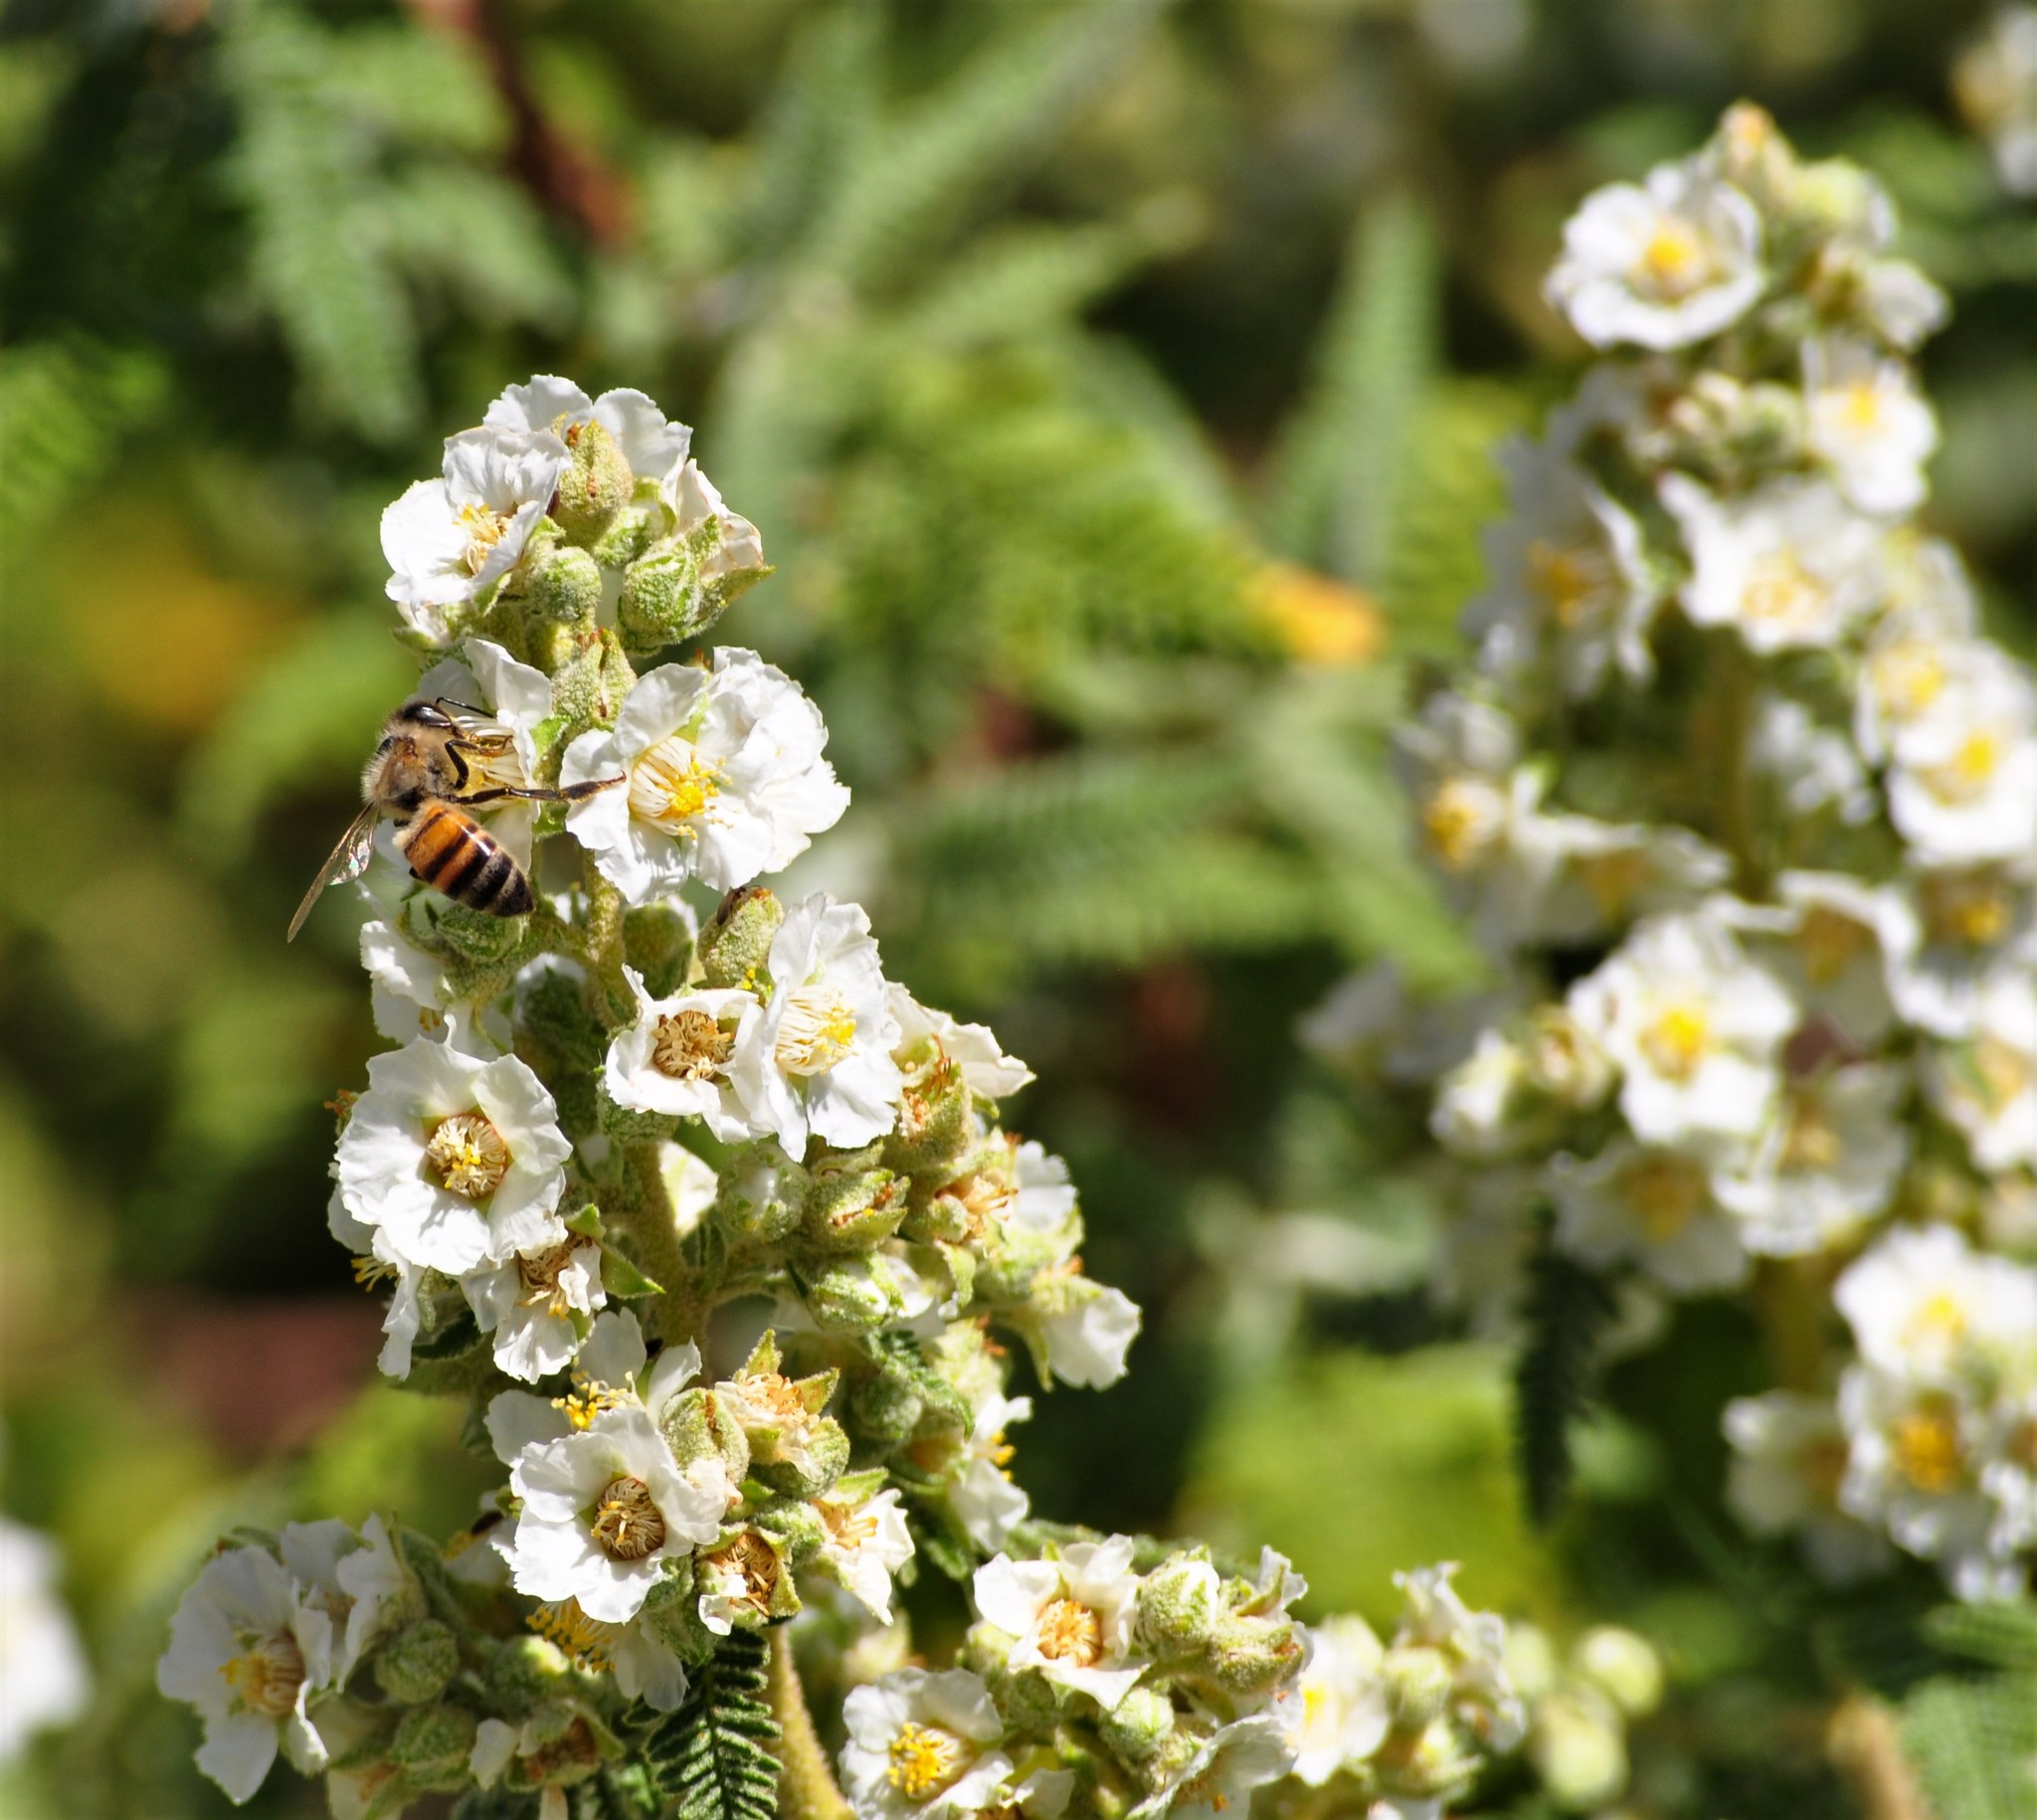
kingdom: Plantae
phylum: Tracheophyta
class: Magnoliopsida
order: Rosales
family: Rosaceae
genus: Chamaebatiaria
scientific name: Chamaebatiaria millefolium
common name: Fernbush
